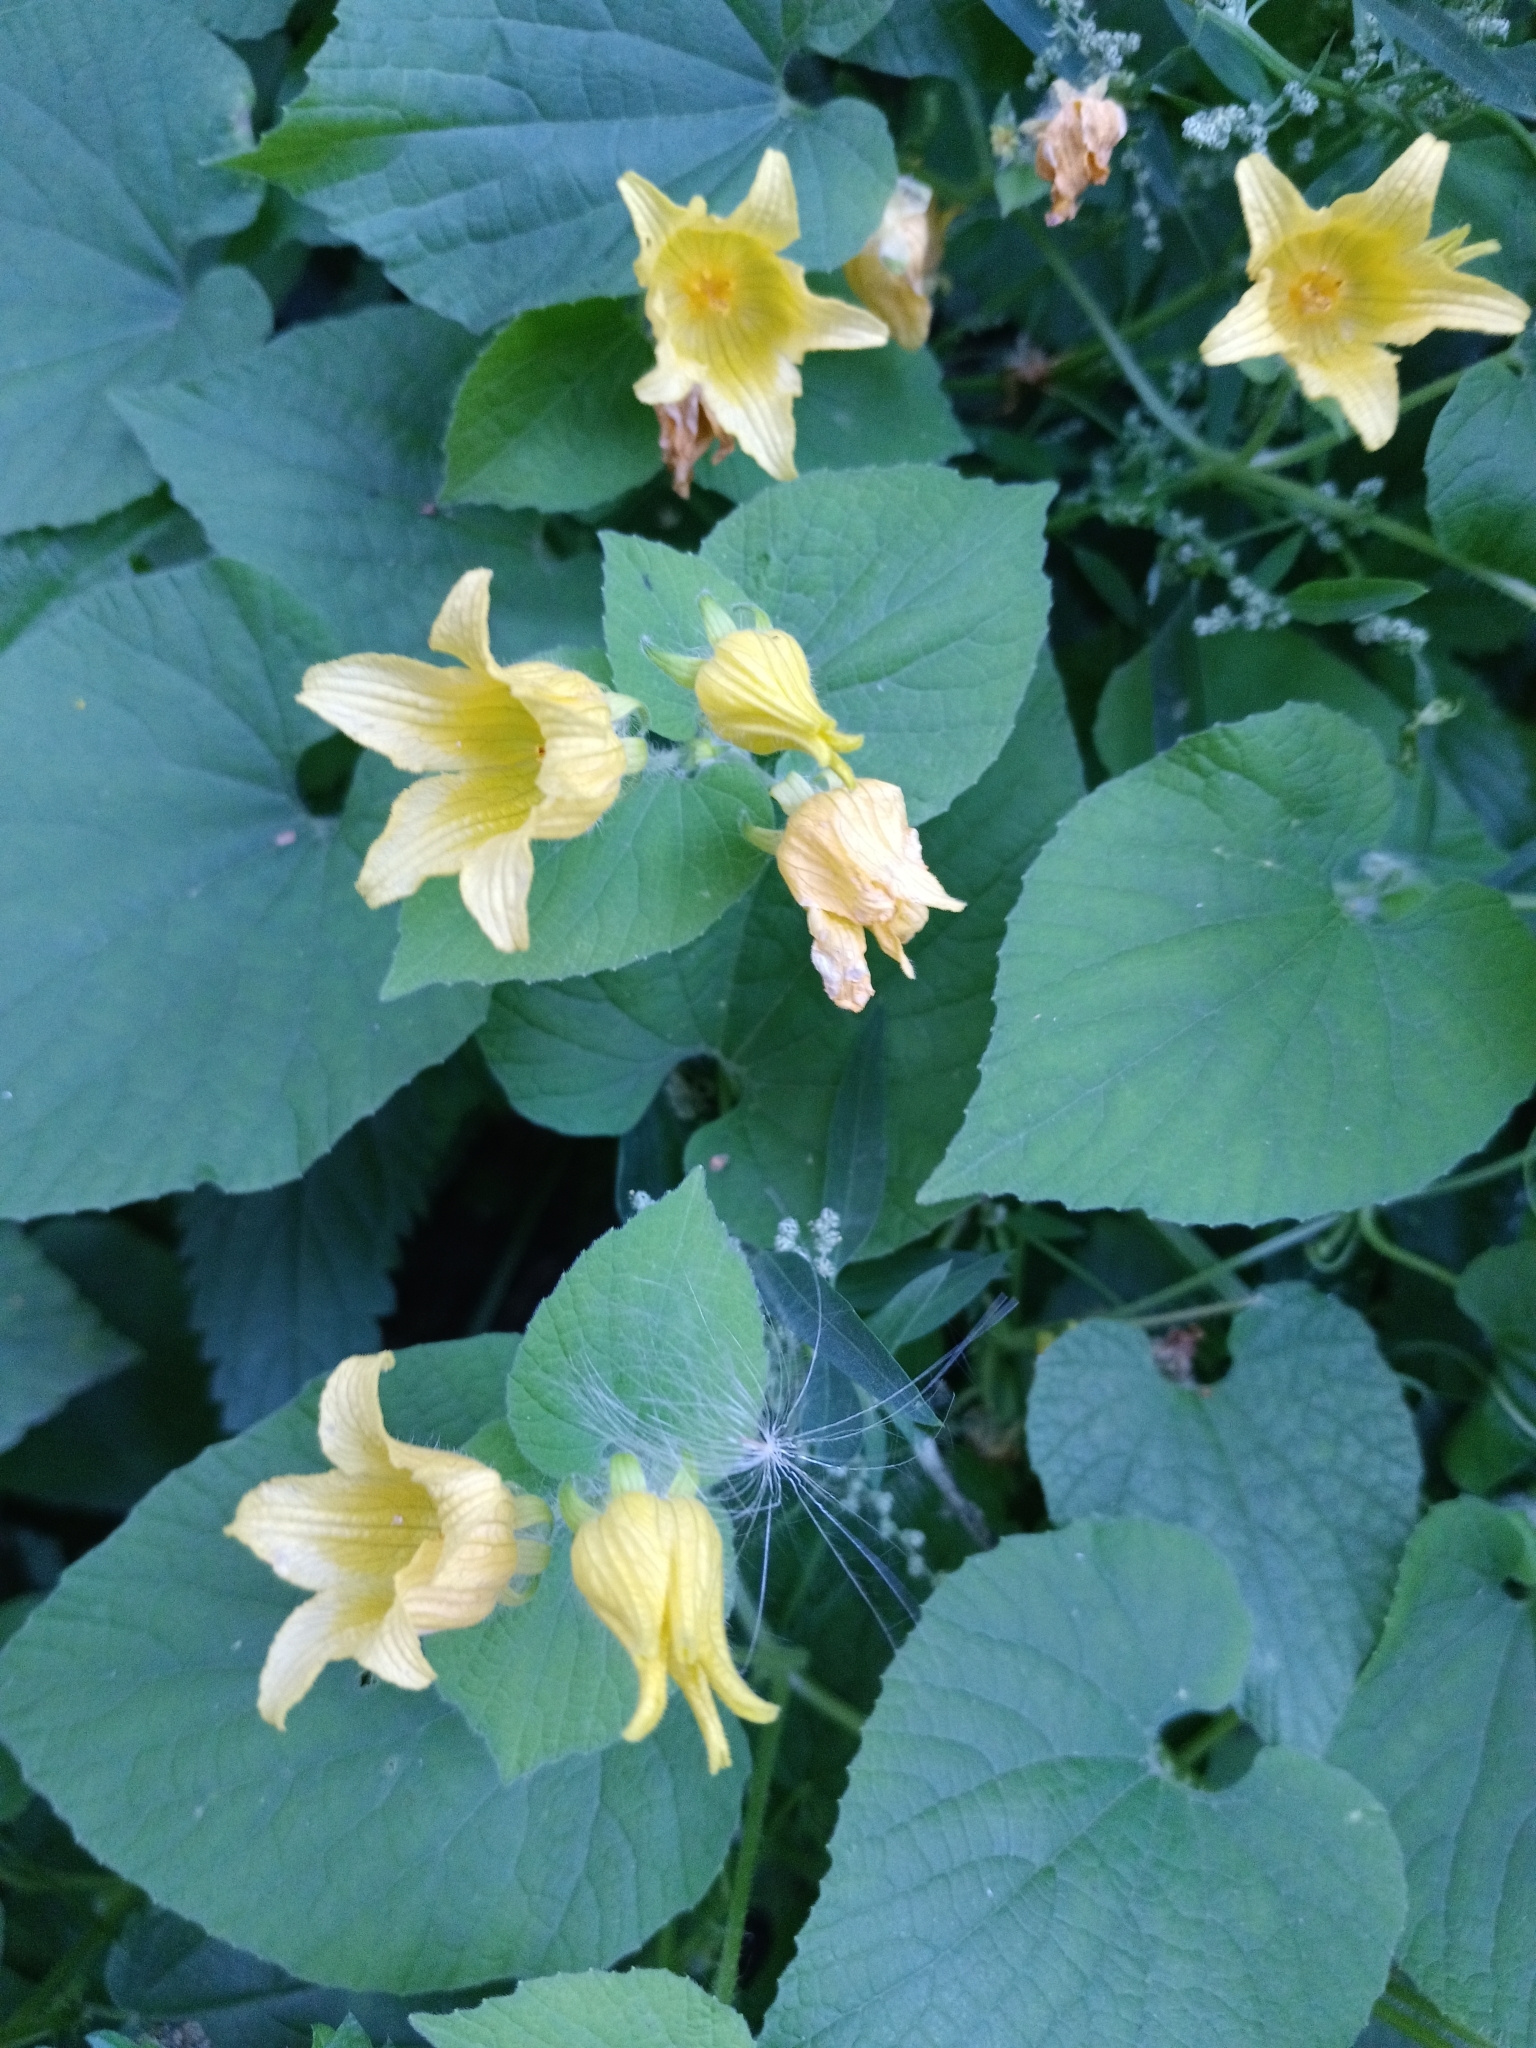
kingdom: Plantae
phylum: Tracheophyta
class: Magnoliopsida
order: Cucurbitales
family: Cucurbitaceae
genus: Thladiantha
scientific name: Thladiantha dubia
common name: Manchu tubergourd
